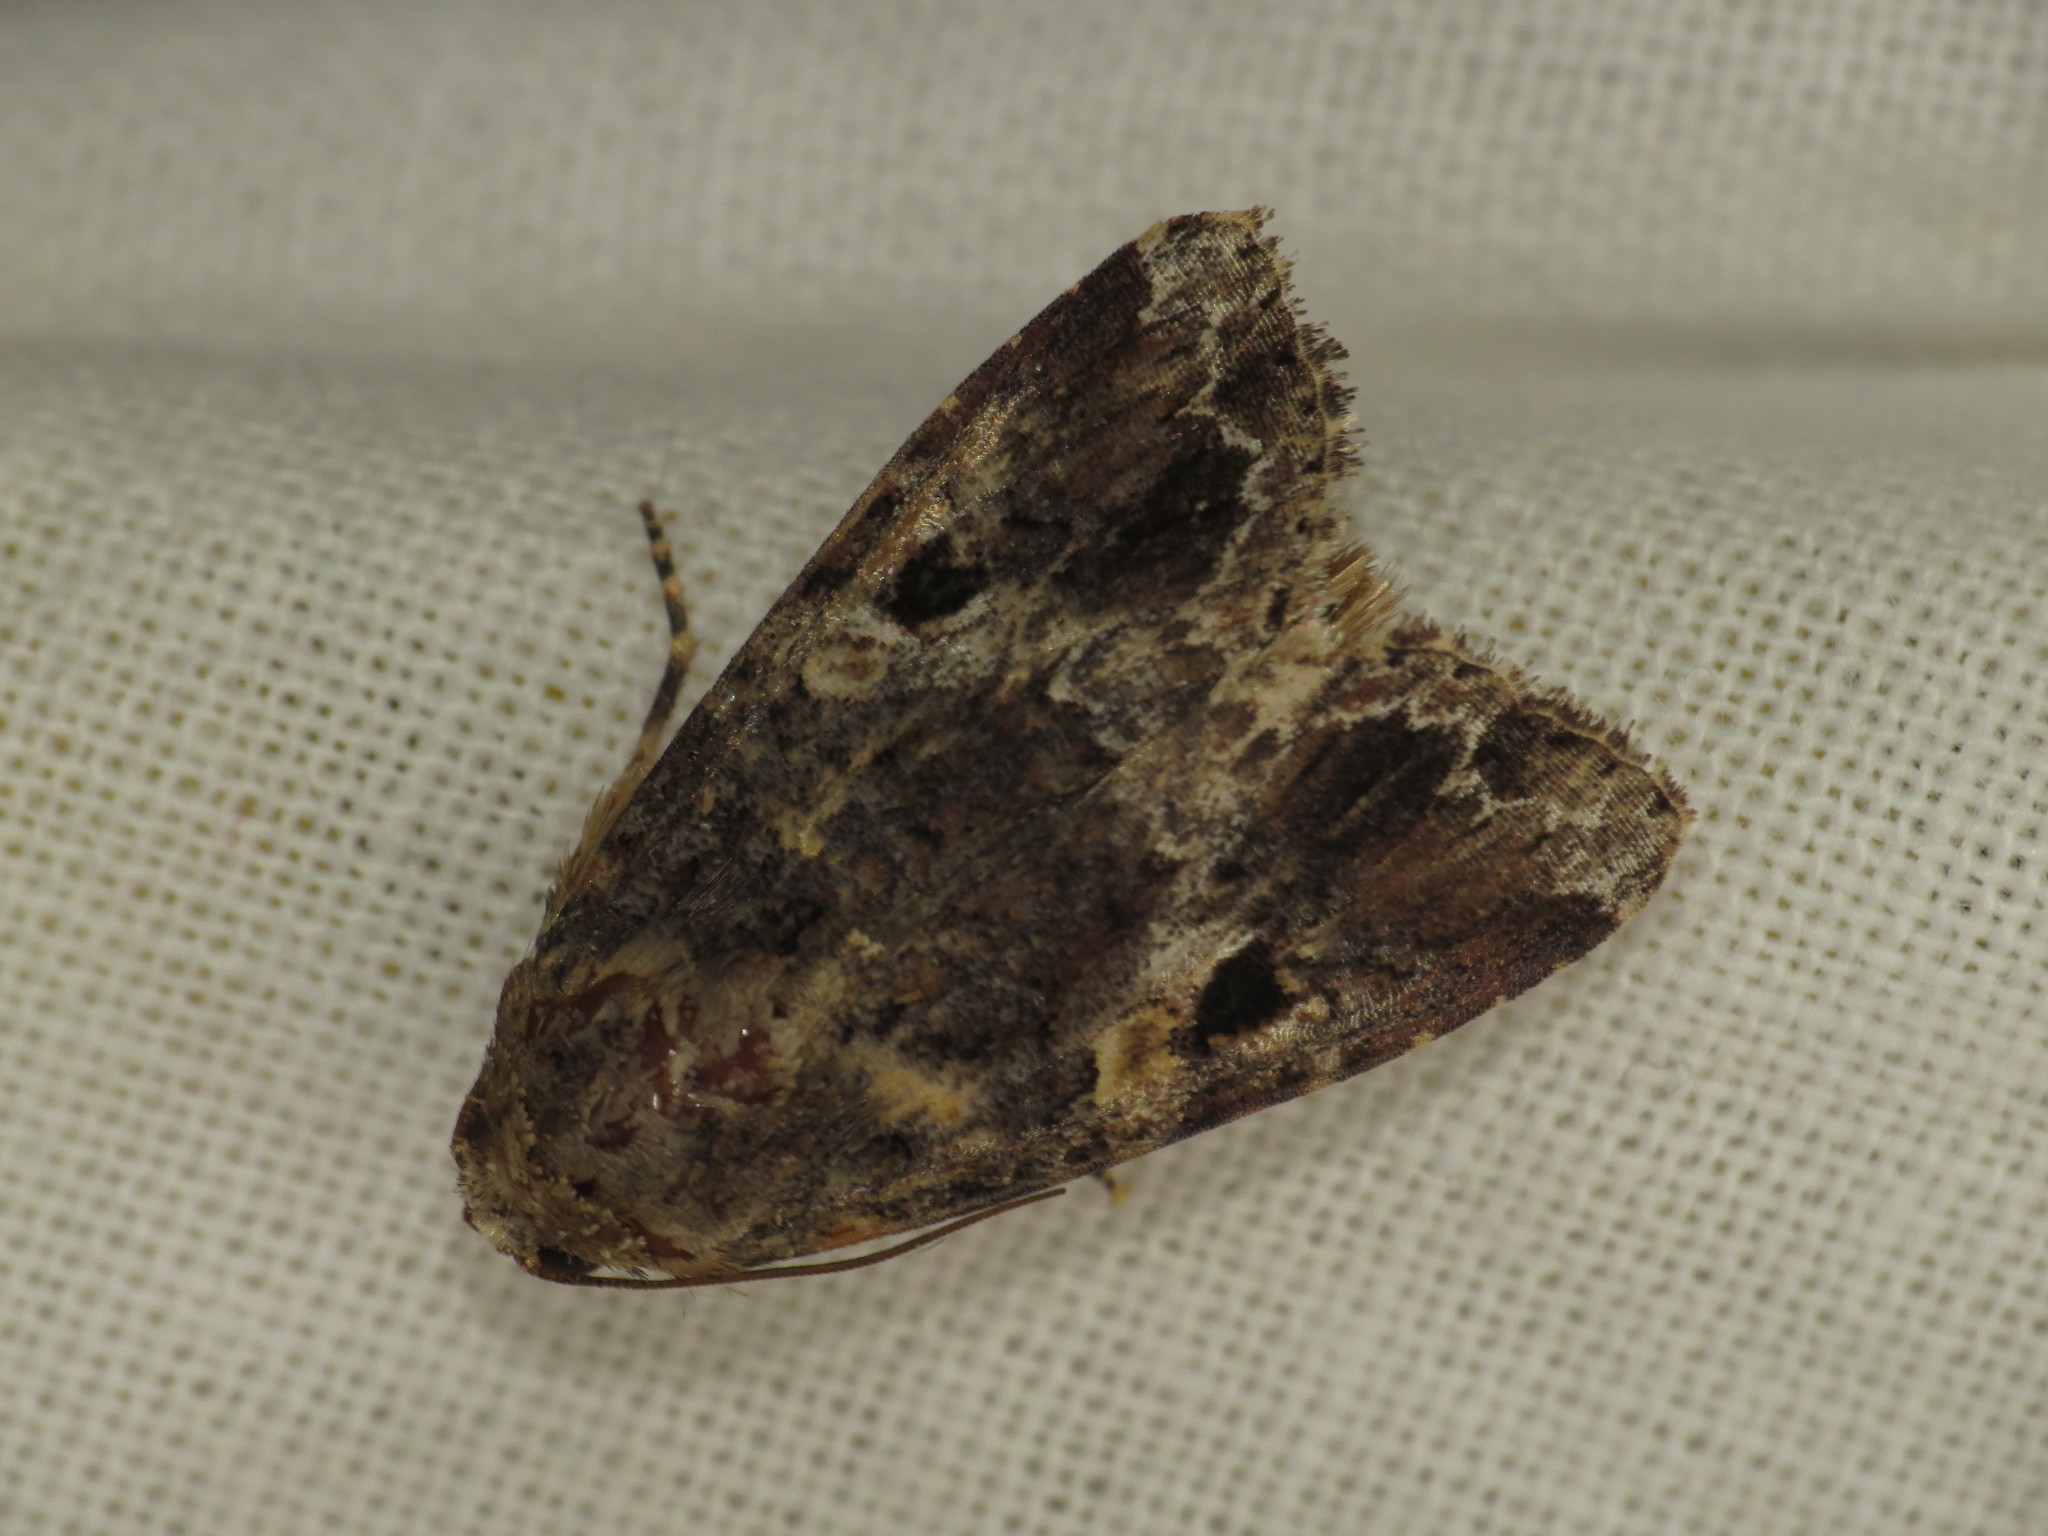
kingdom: Animalia
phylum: Arthropoda
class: Insecta
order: Lepidoptera
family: Noctuidae
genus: Spodoptera
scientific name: Spodoptera mauritia
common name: Lawn armyworm
